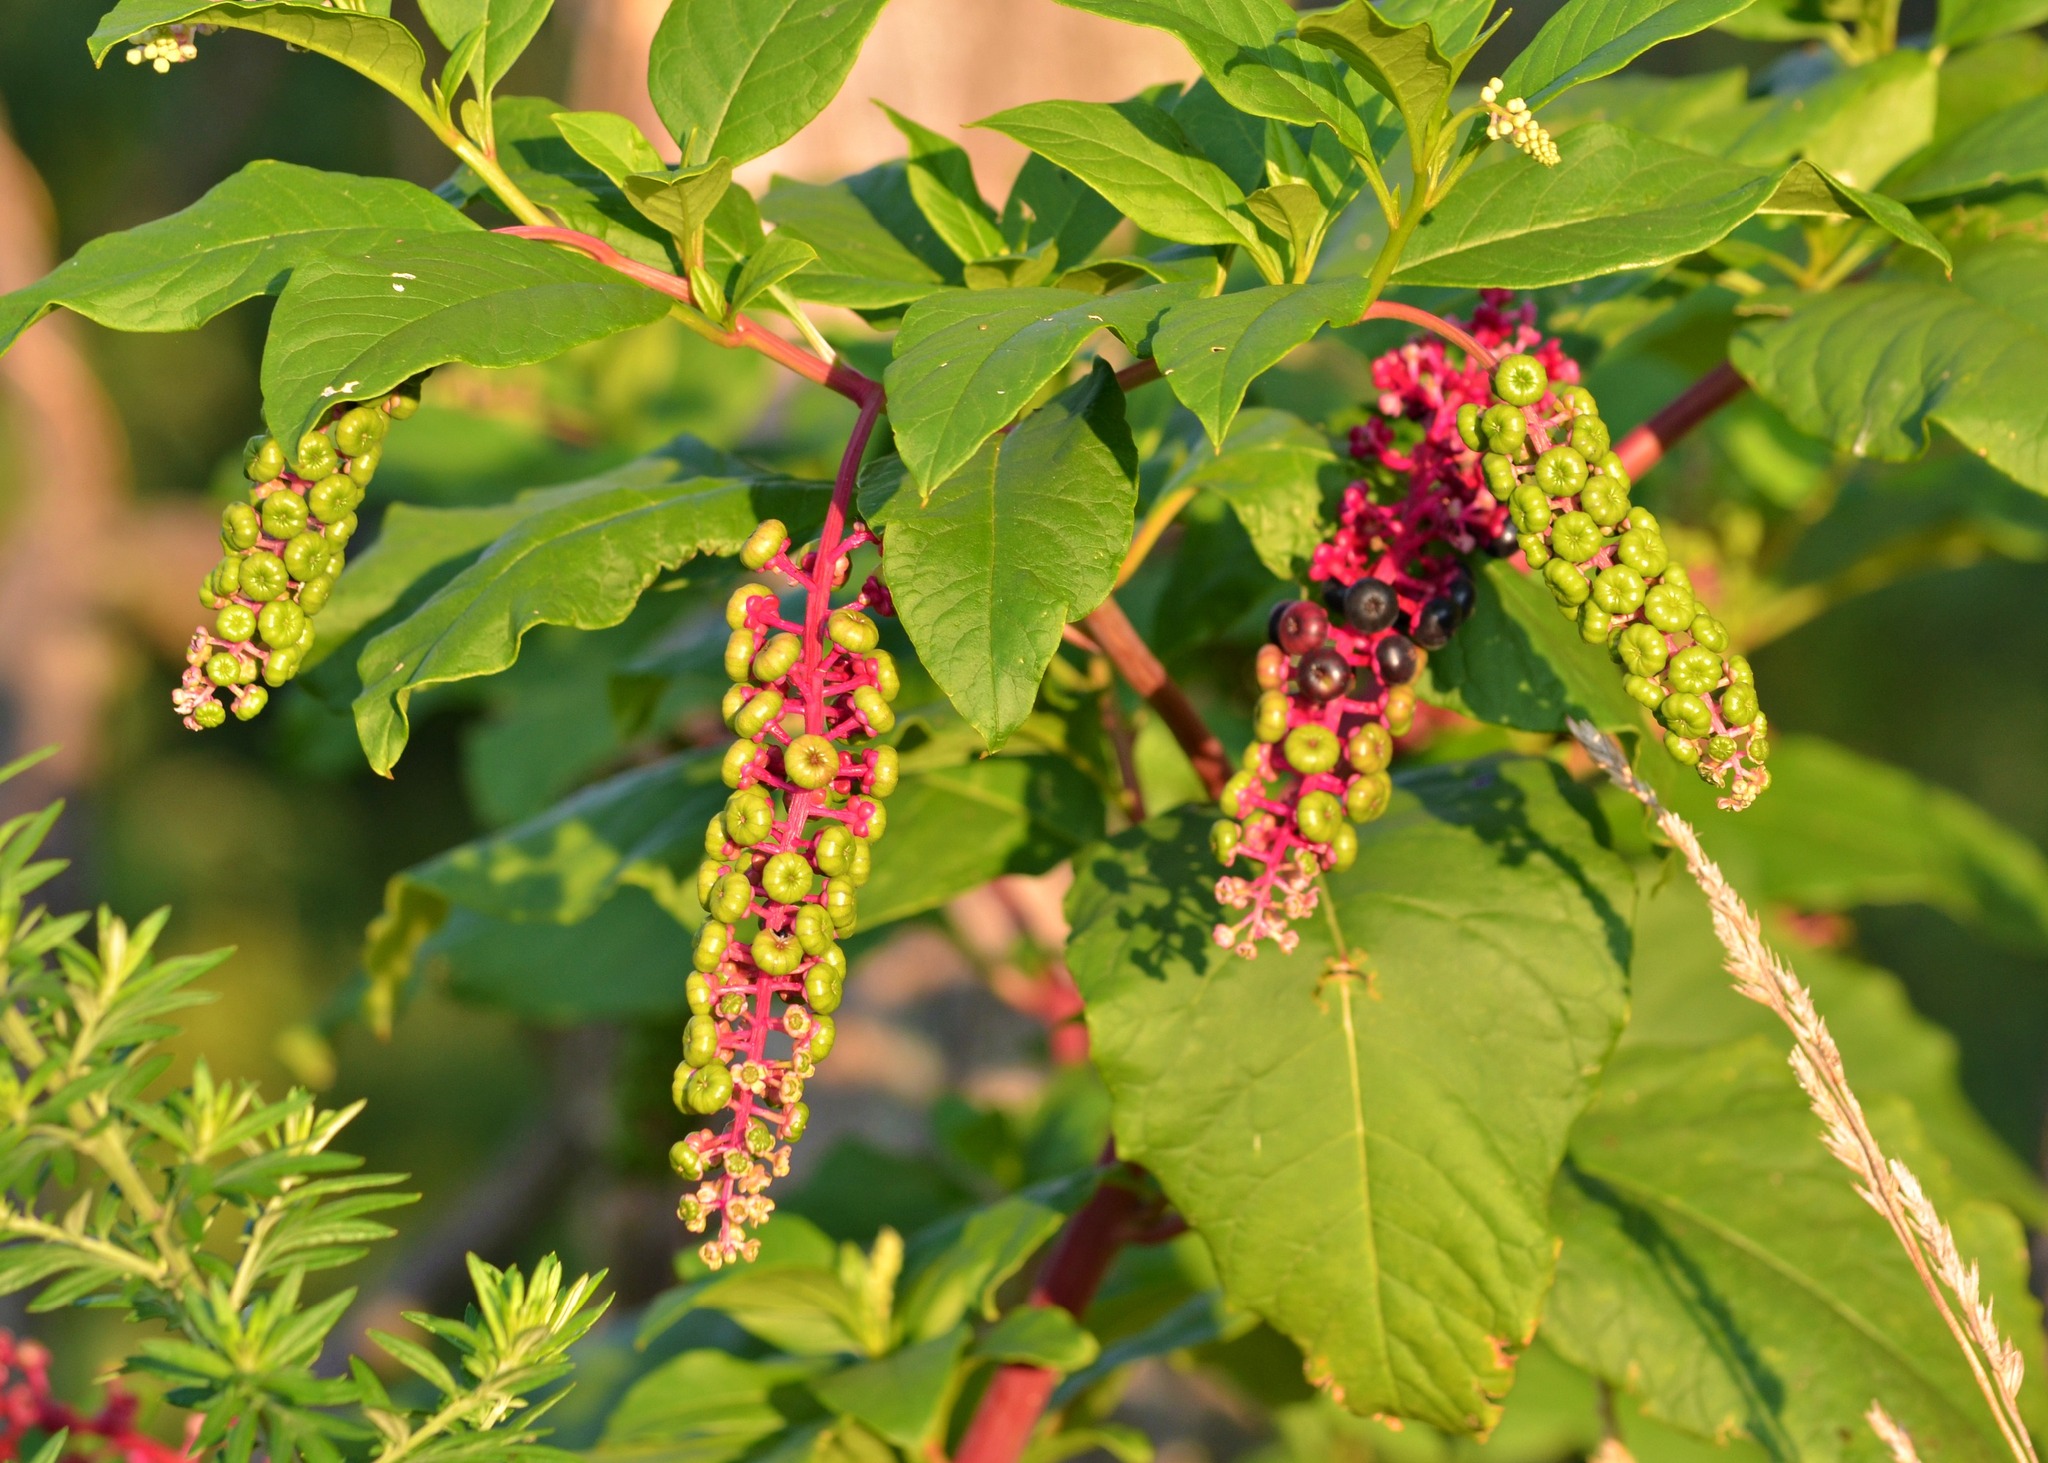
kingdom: Plantae
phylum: Tracheophyta
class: Magnoliopsida
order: Caryophyllales
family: Phytolaccaceae
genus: Phytolacca
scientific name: Phytolacca americana
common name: American pokeweed
